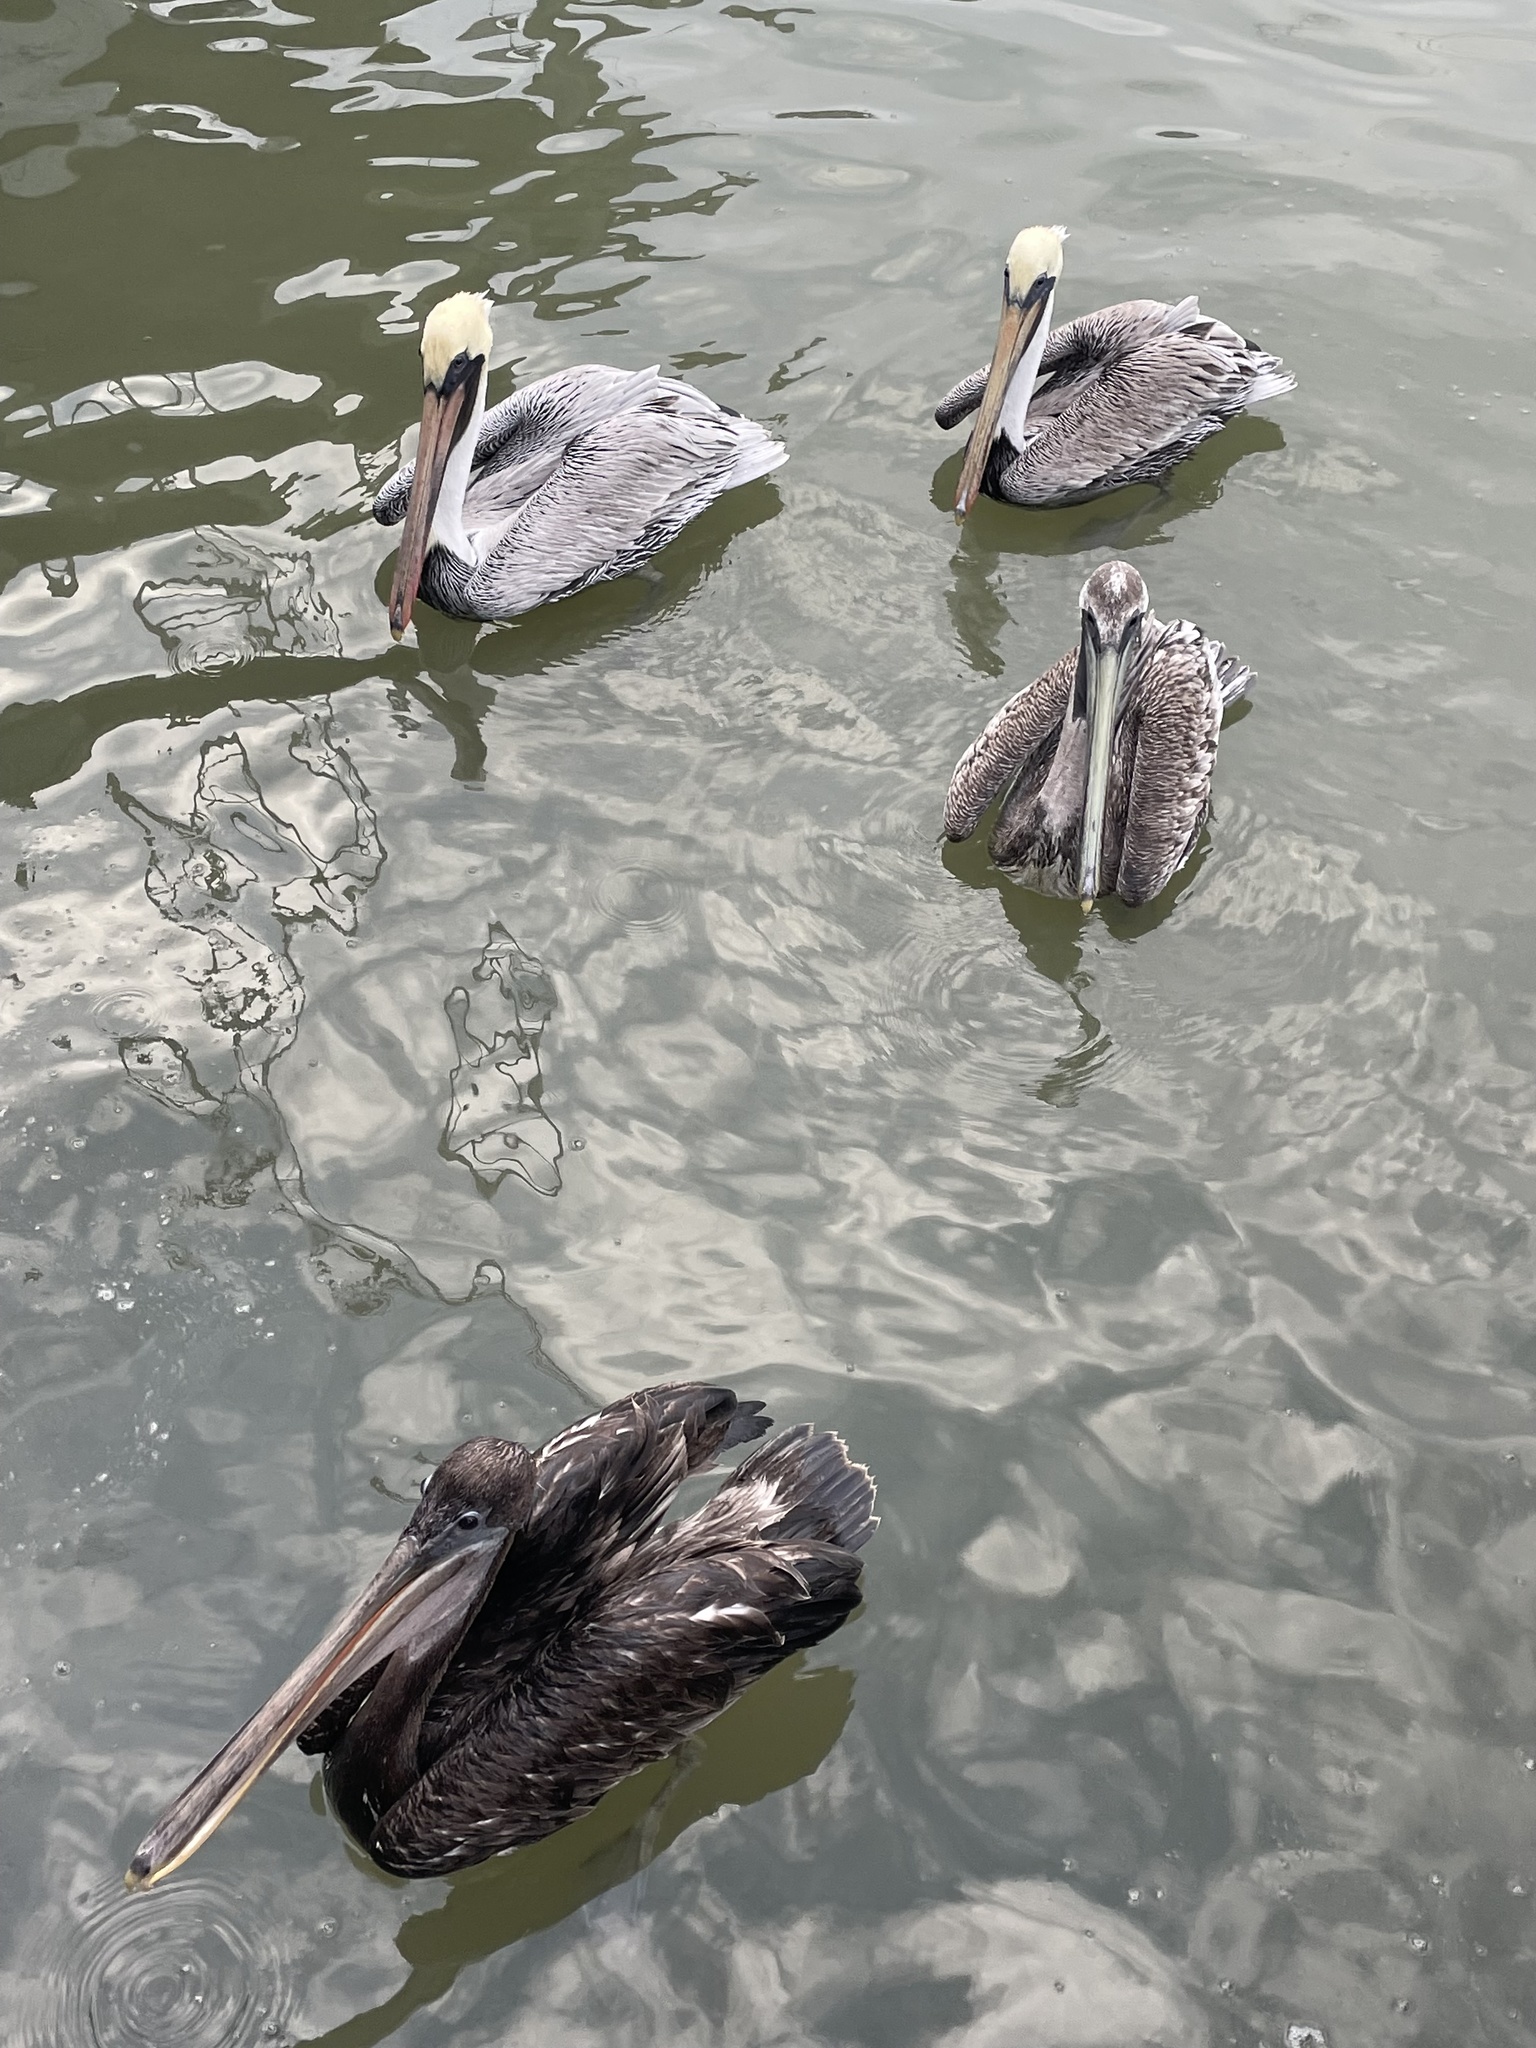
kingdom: Animalia
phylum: Chordata
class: Aves
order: Pelecaniformes
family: Pelecanidae
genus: Pelecanus
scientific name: Pelecanus occidentalis
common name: Brown pelican
